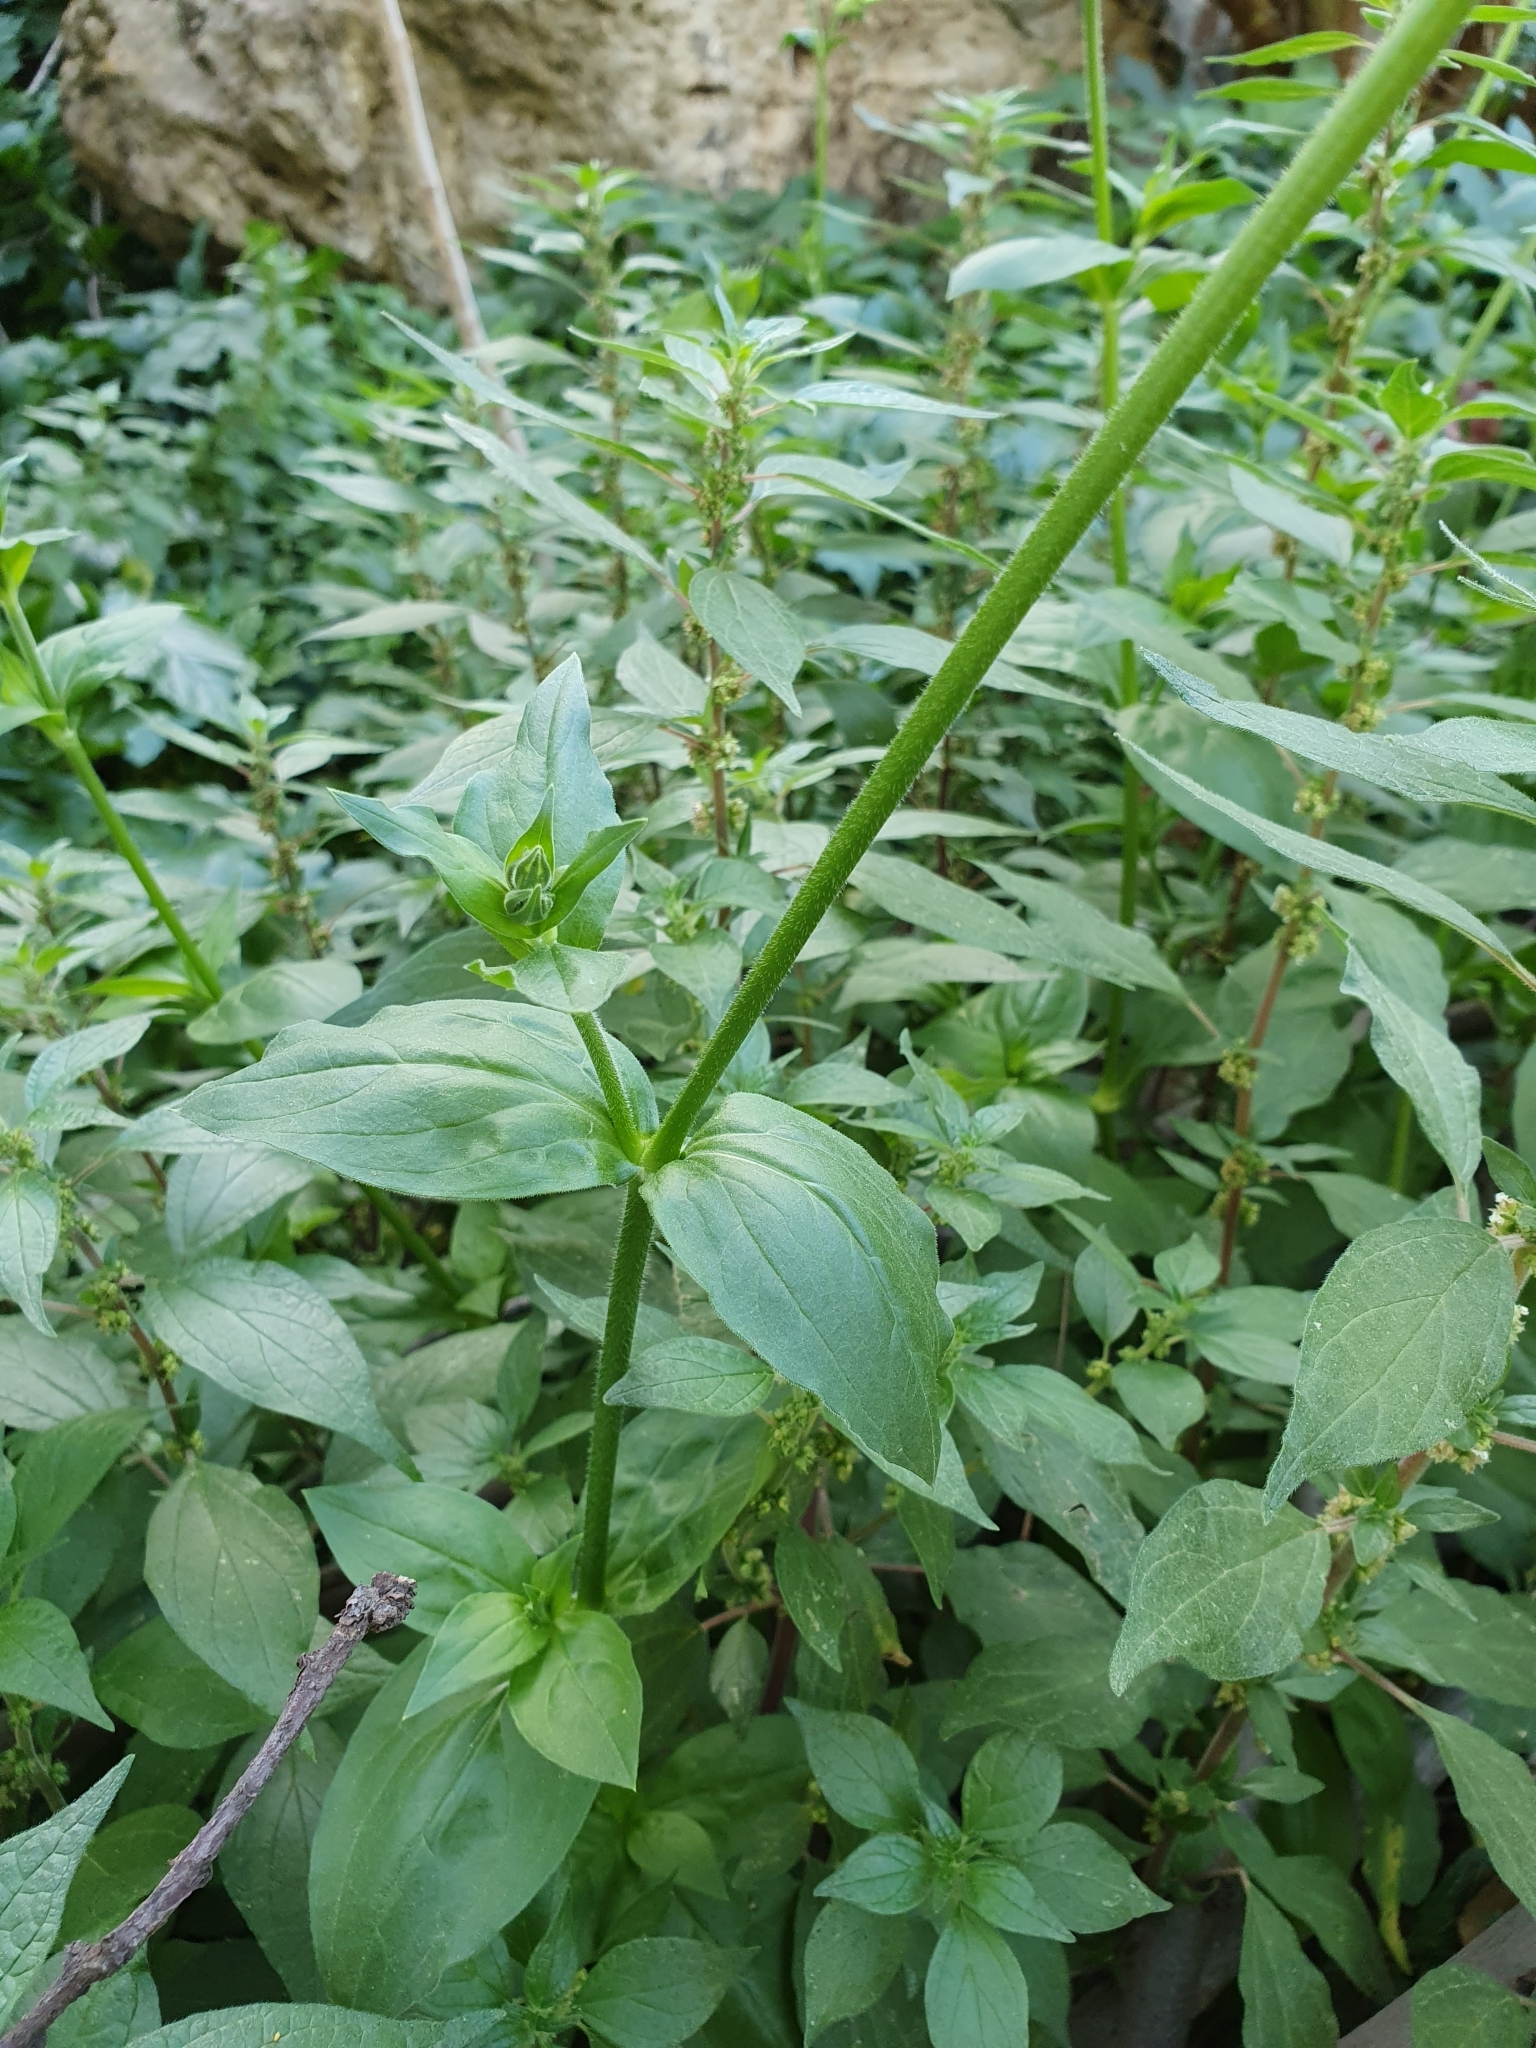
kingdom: Plantae
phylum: Tracheophyta
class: Magnoliopsida
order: Caryophyllales
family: Caryophyllaceae
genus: Silene
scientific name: Silene latifolia
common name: White campion
